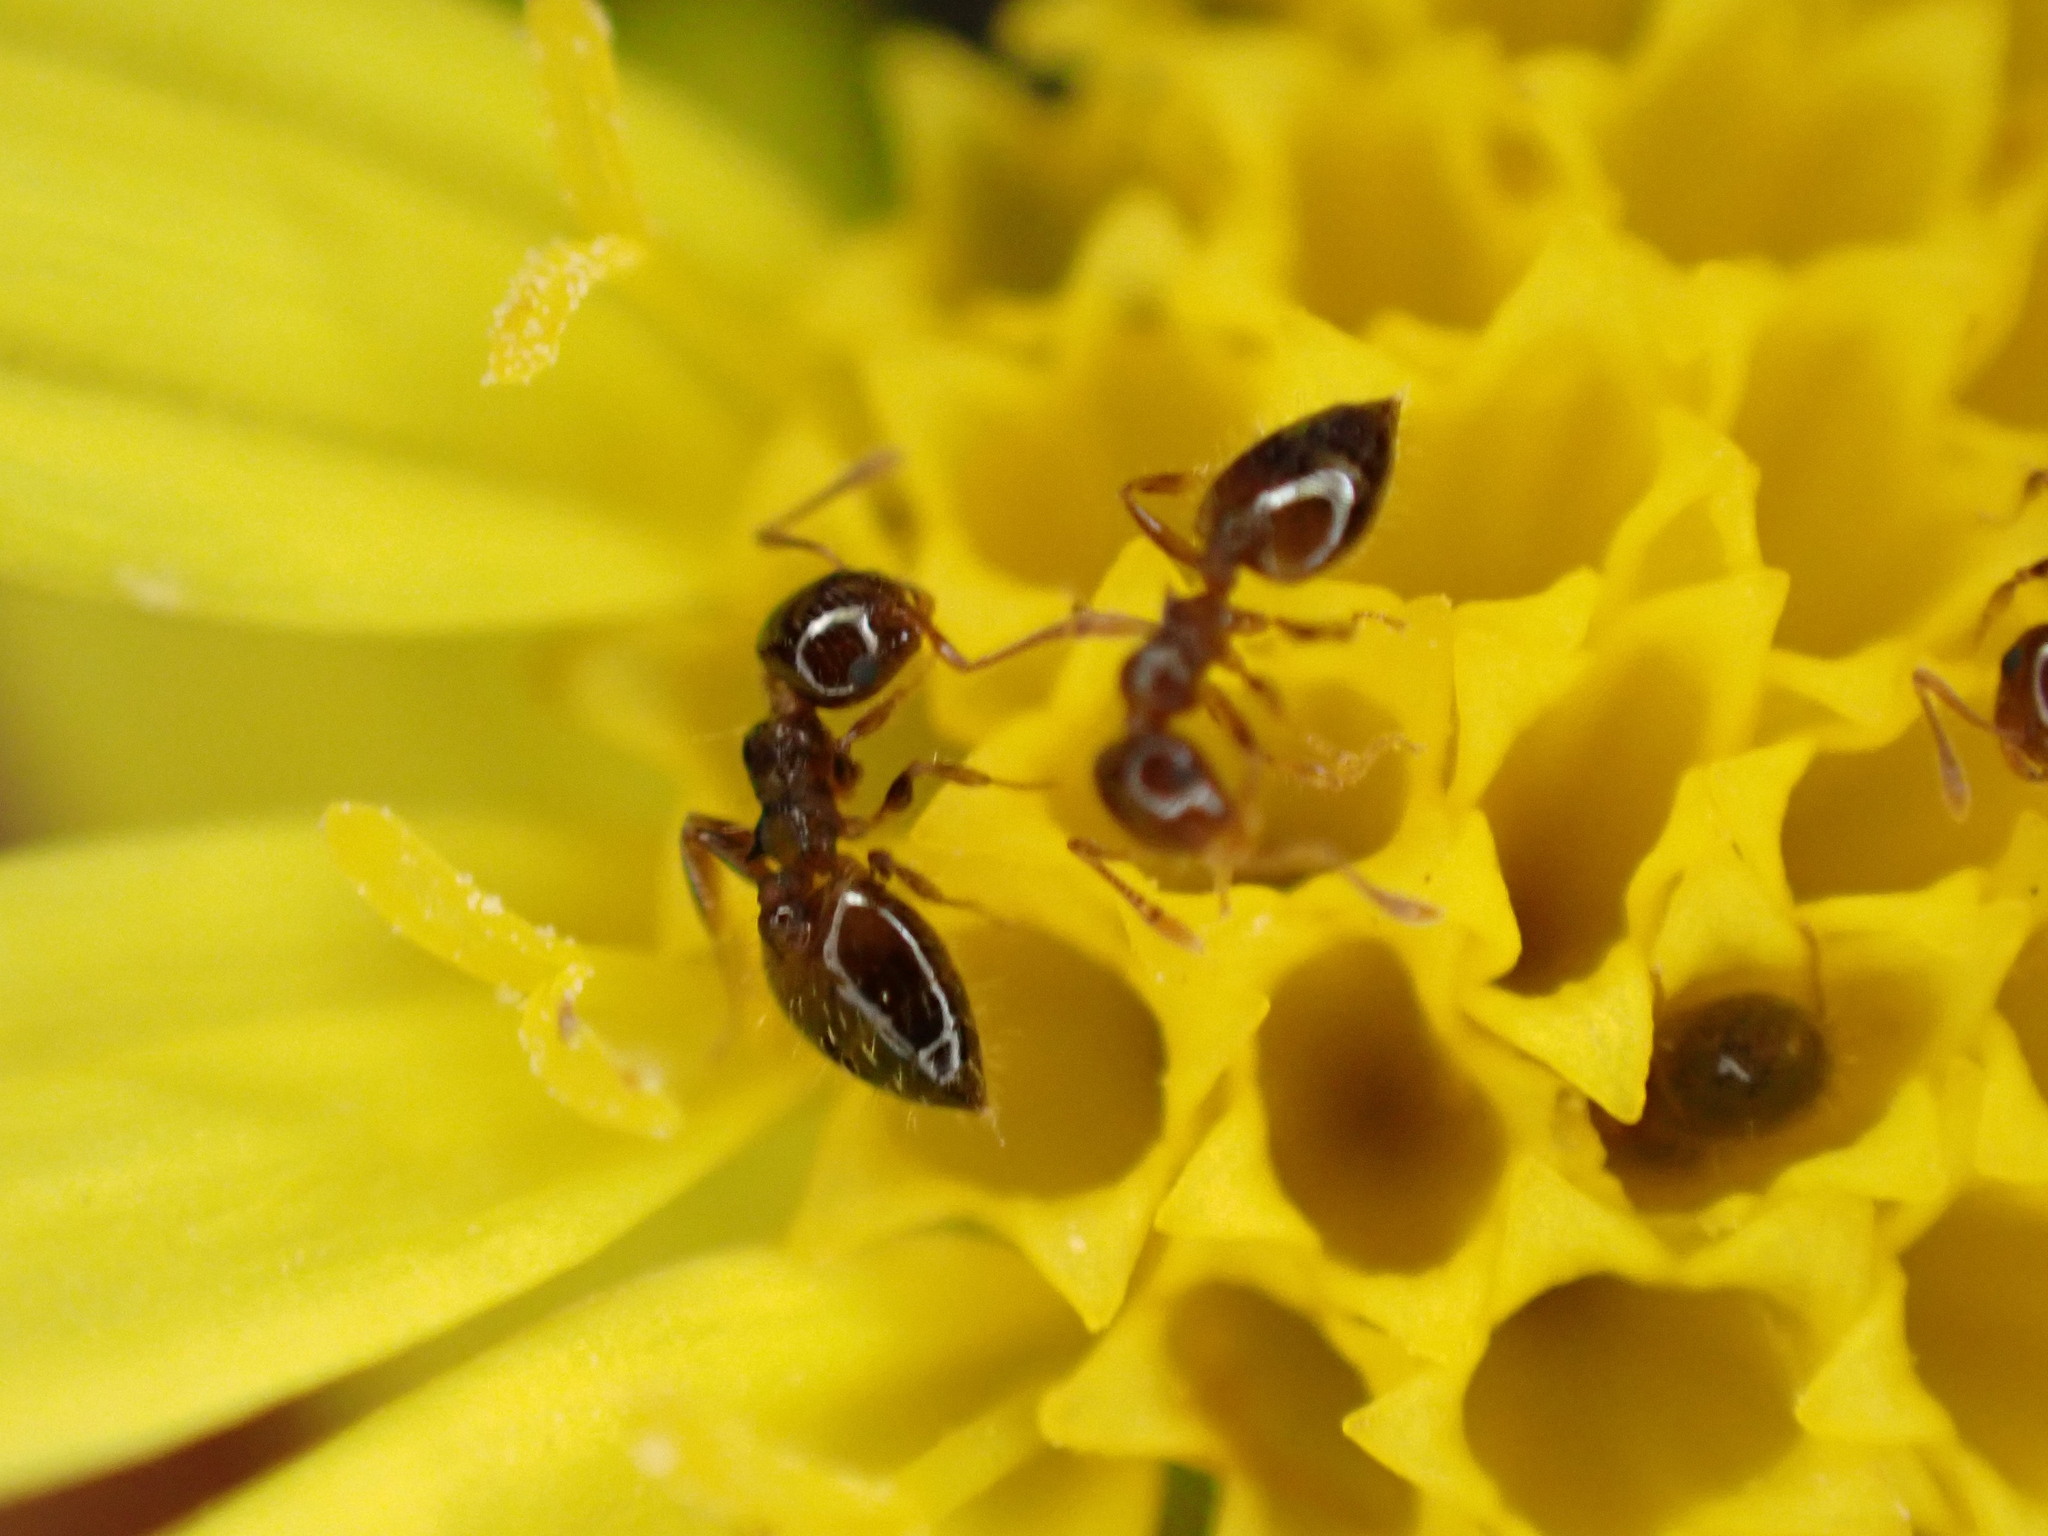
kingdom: Animalia
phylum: Arthropoda
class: Insecta
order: Hymenoptera
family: Formicidae
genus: Crematogaster
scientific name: Crematogaster sordidula
